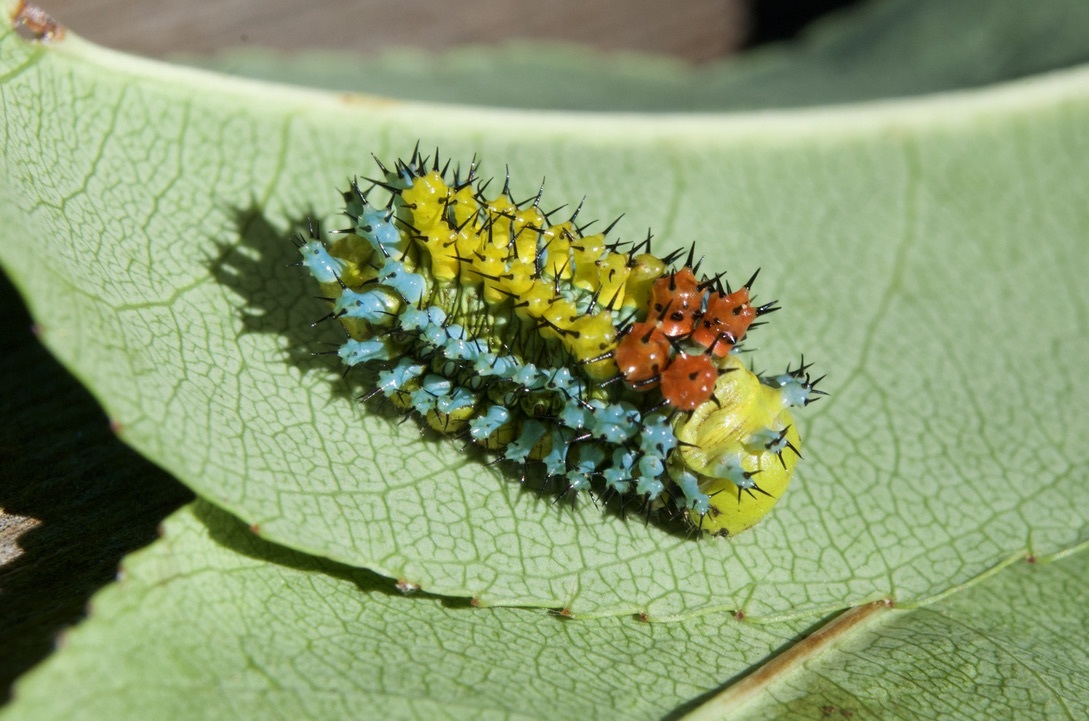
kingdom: Animalia
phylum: Arthropoda
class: Insecta
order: Lepidoptera
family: Saturniidae
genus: Hyalophora
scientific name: Hyalophora cecropia
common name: Cecropia silkmoth
